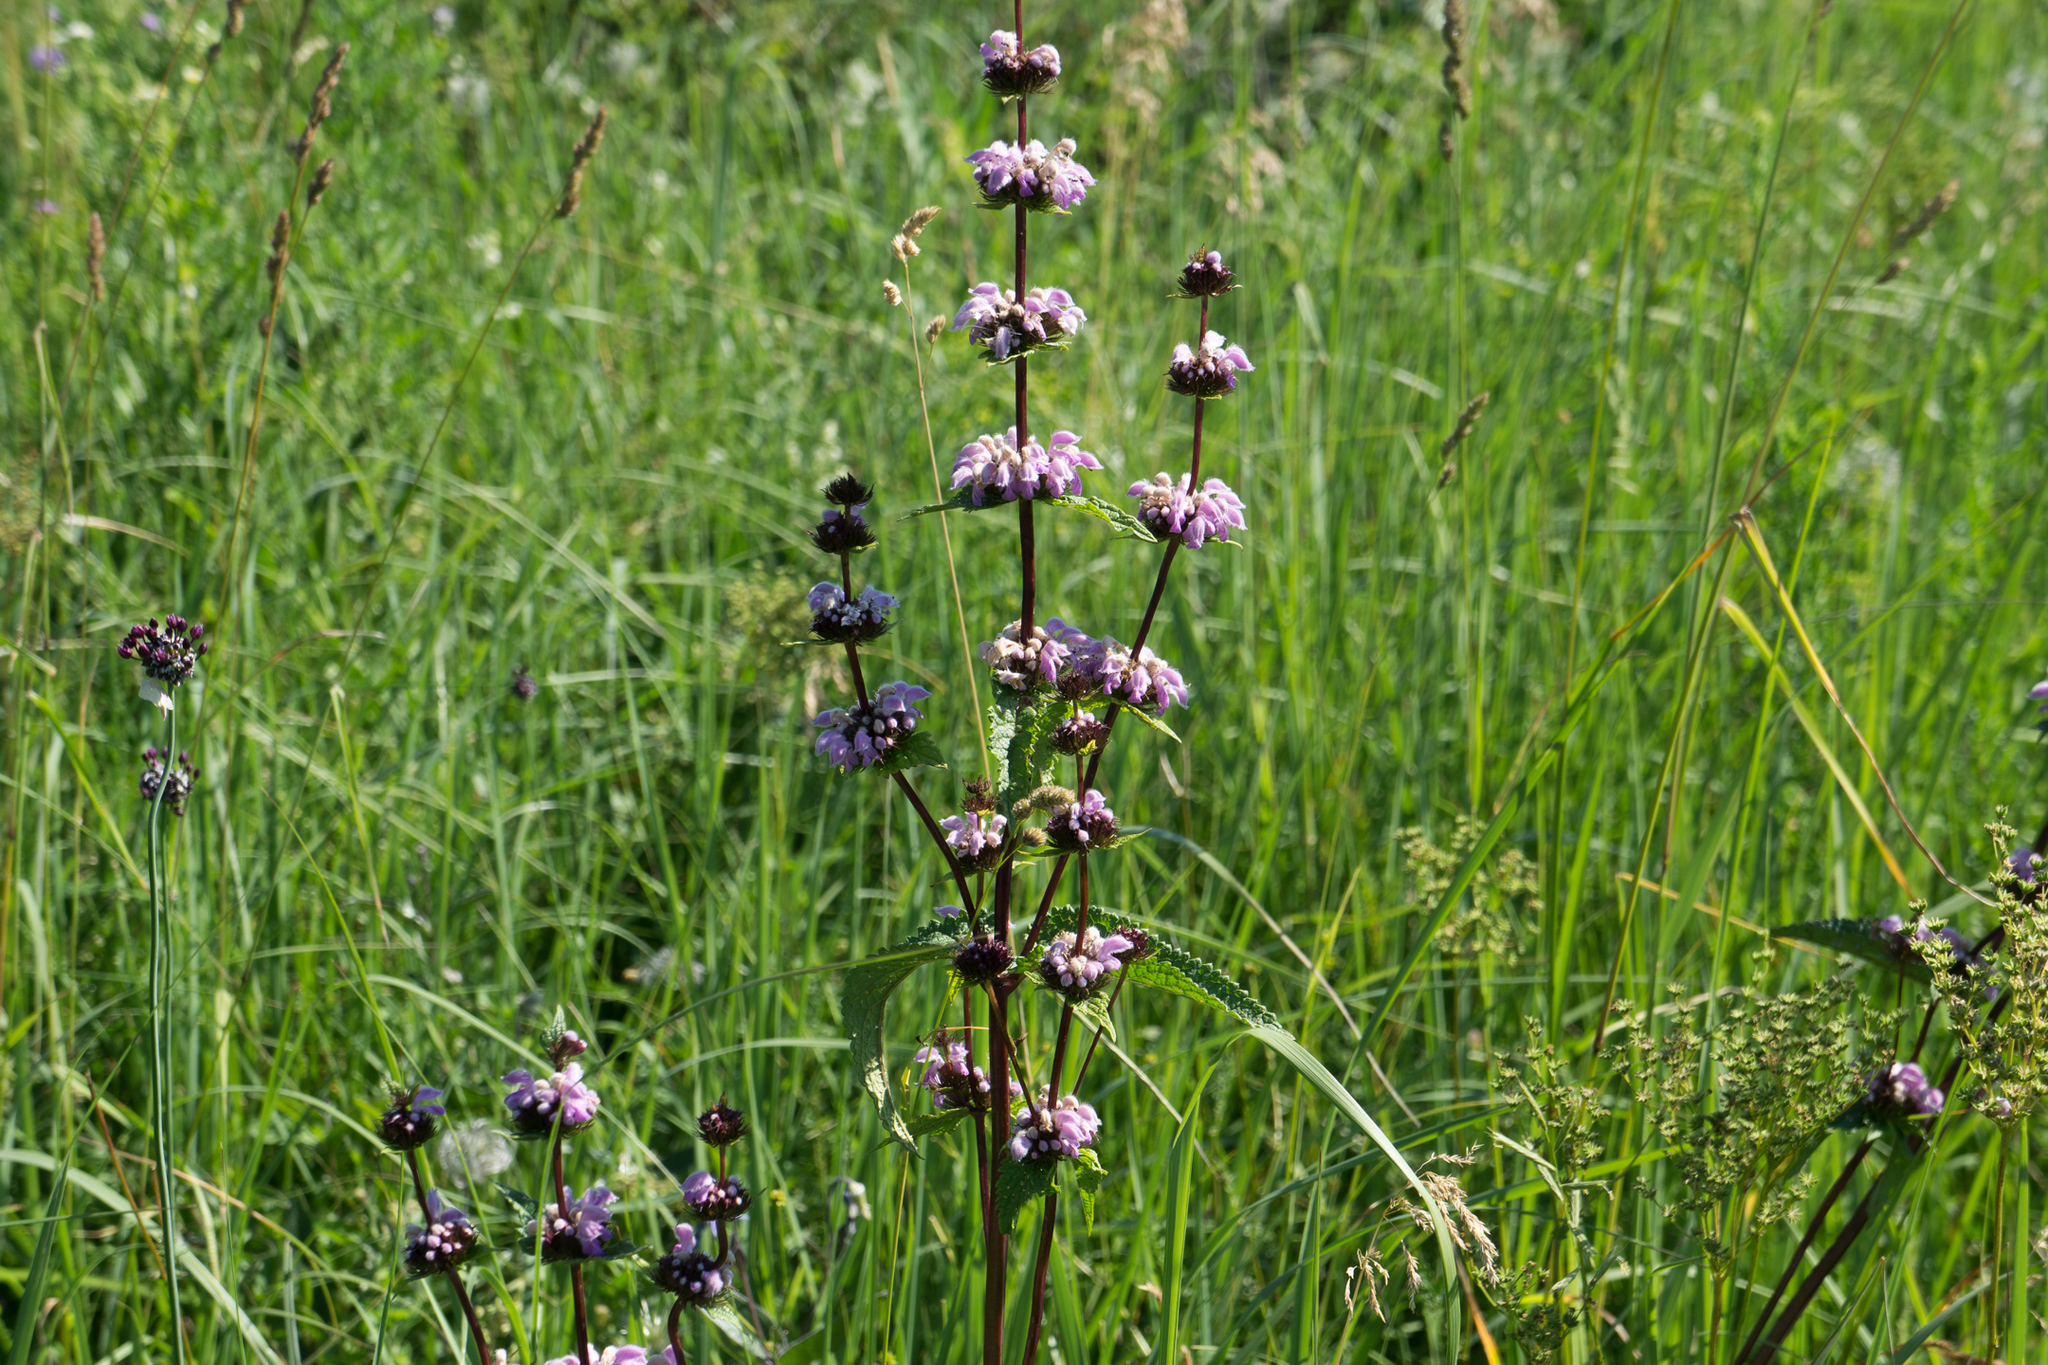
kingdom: Plantae
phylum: Tracheophyta
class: Magnoliopsida
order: Lamiales
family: Lamiaceae
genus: Phlomoides
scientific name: Phlomoides tuberosa
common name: Tuberous jerusalem sage
